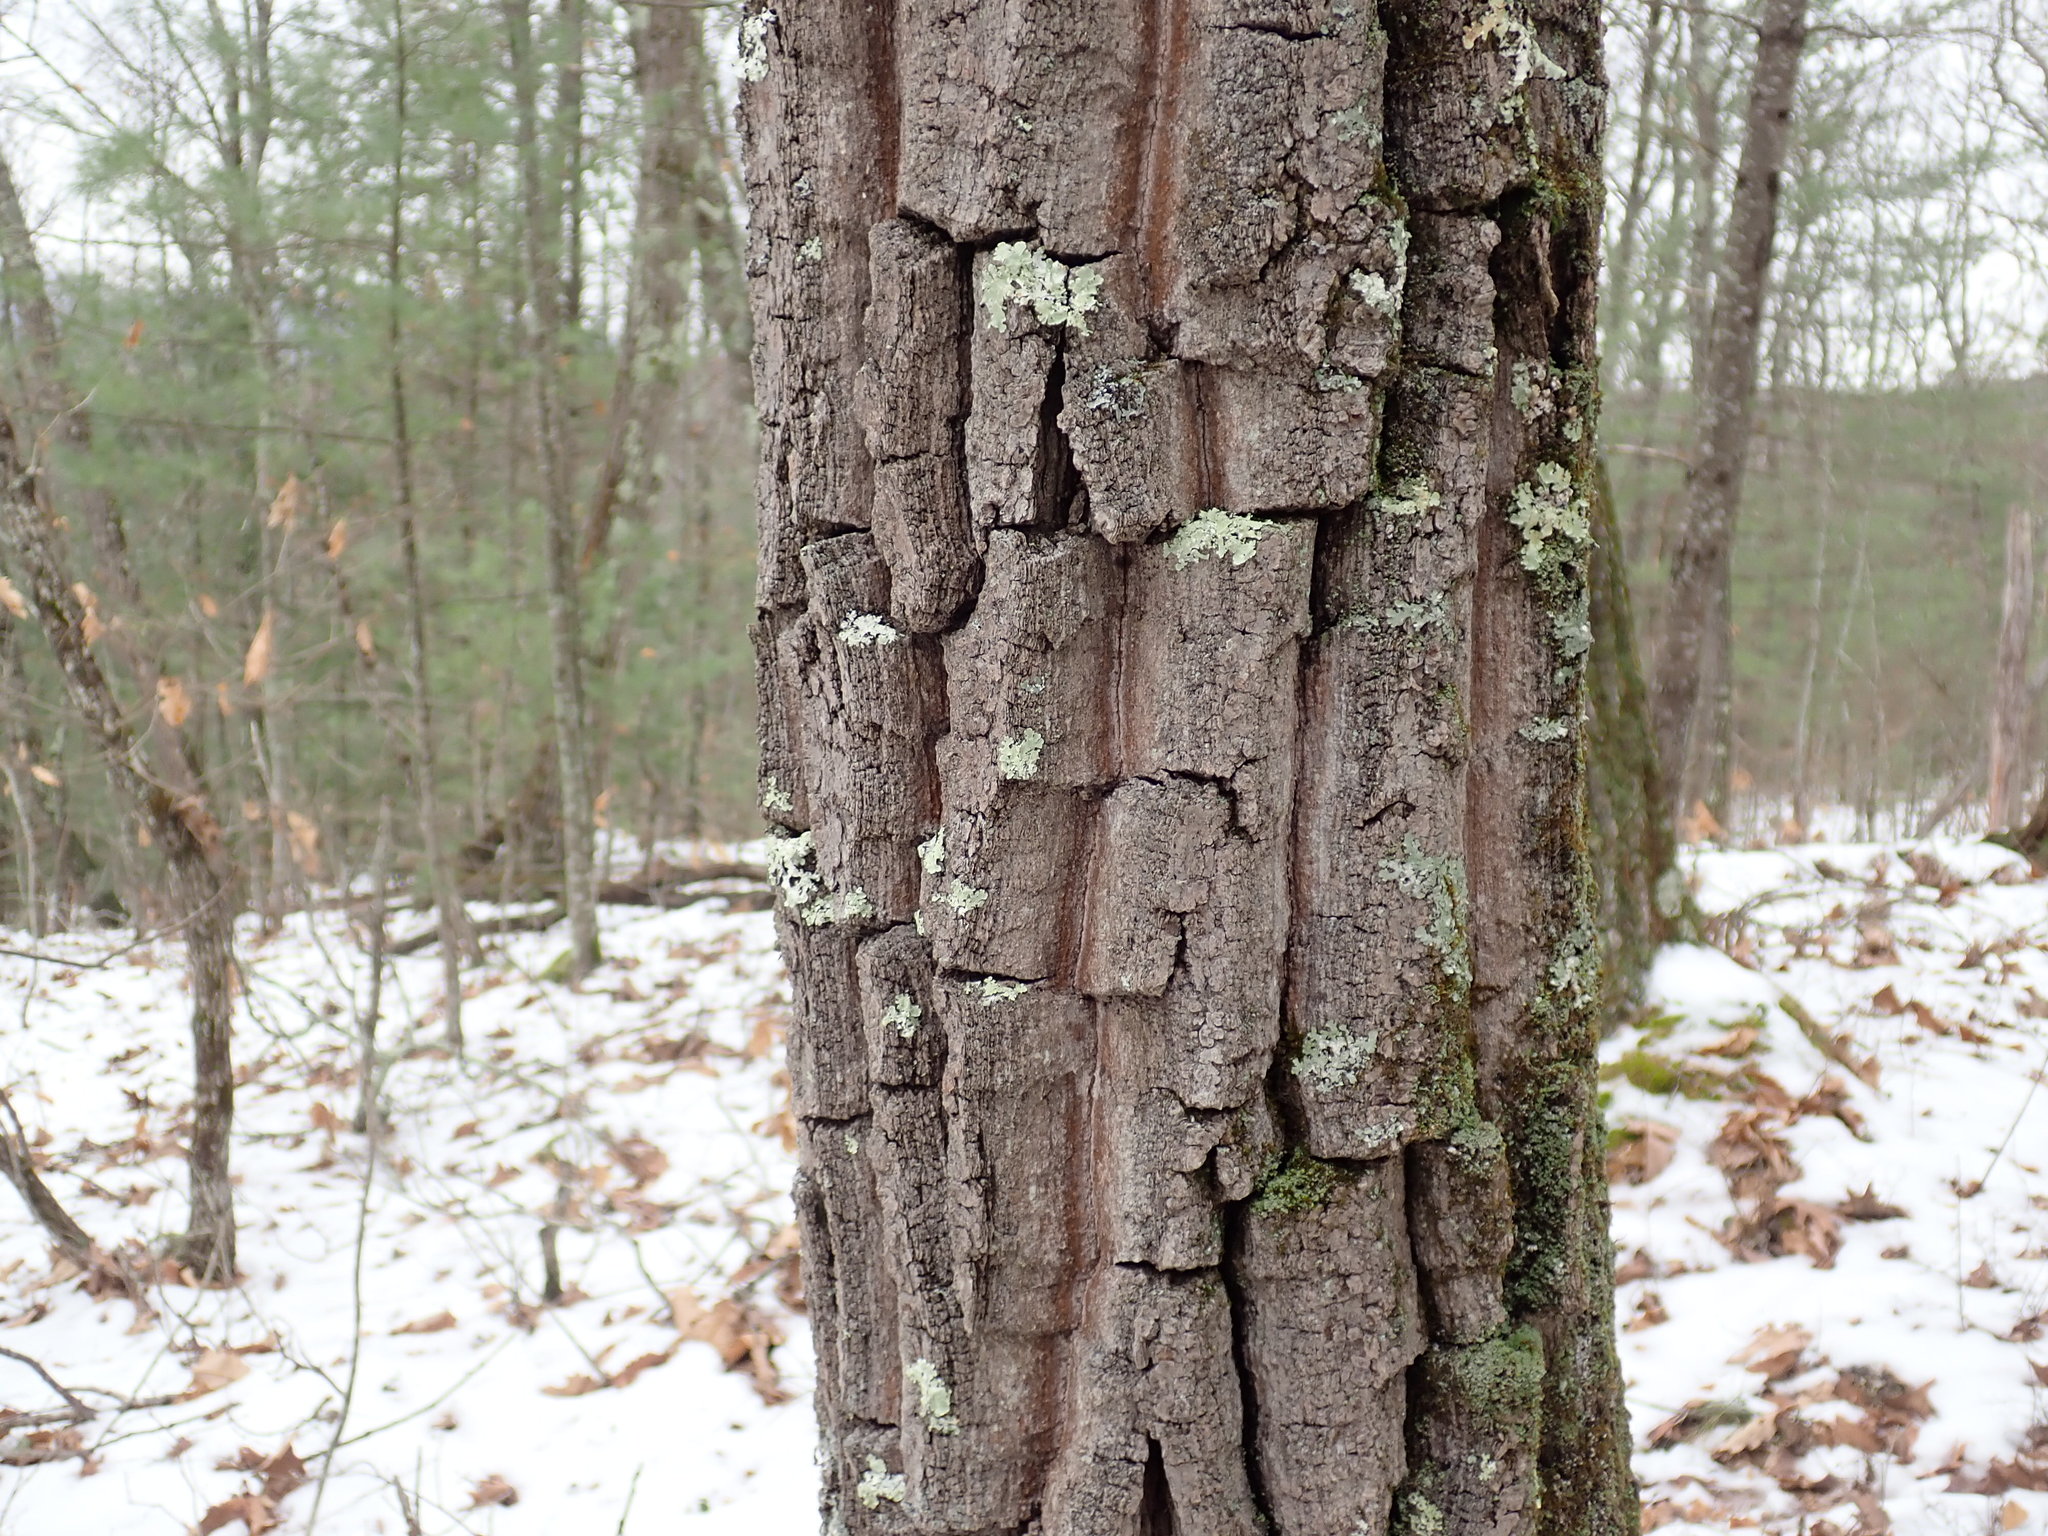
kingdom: Plantae
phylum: Tracheophyta
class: Magnoliopsida
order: Fagales
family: Fagaceae
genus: Quercus
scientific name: Quercus montana
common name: Chestnut oak
